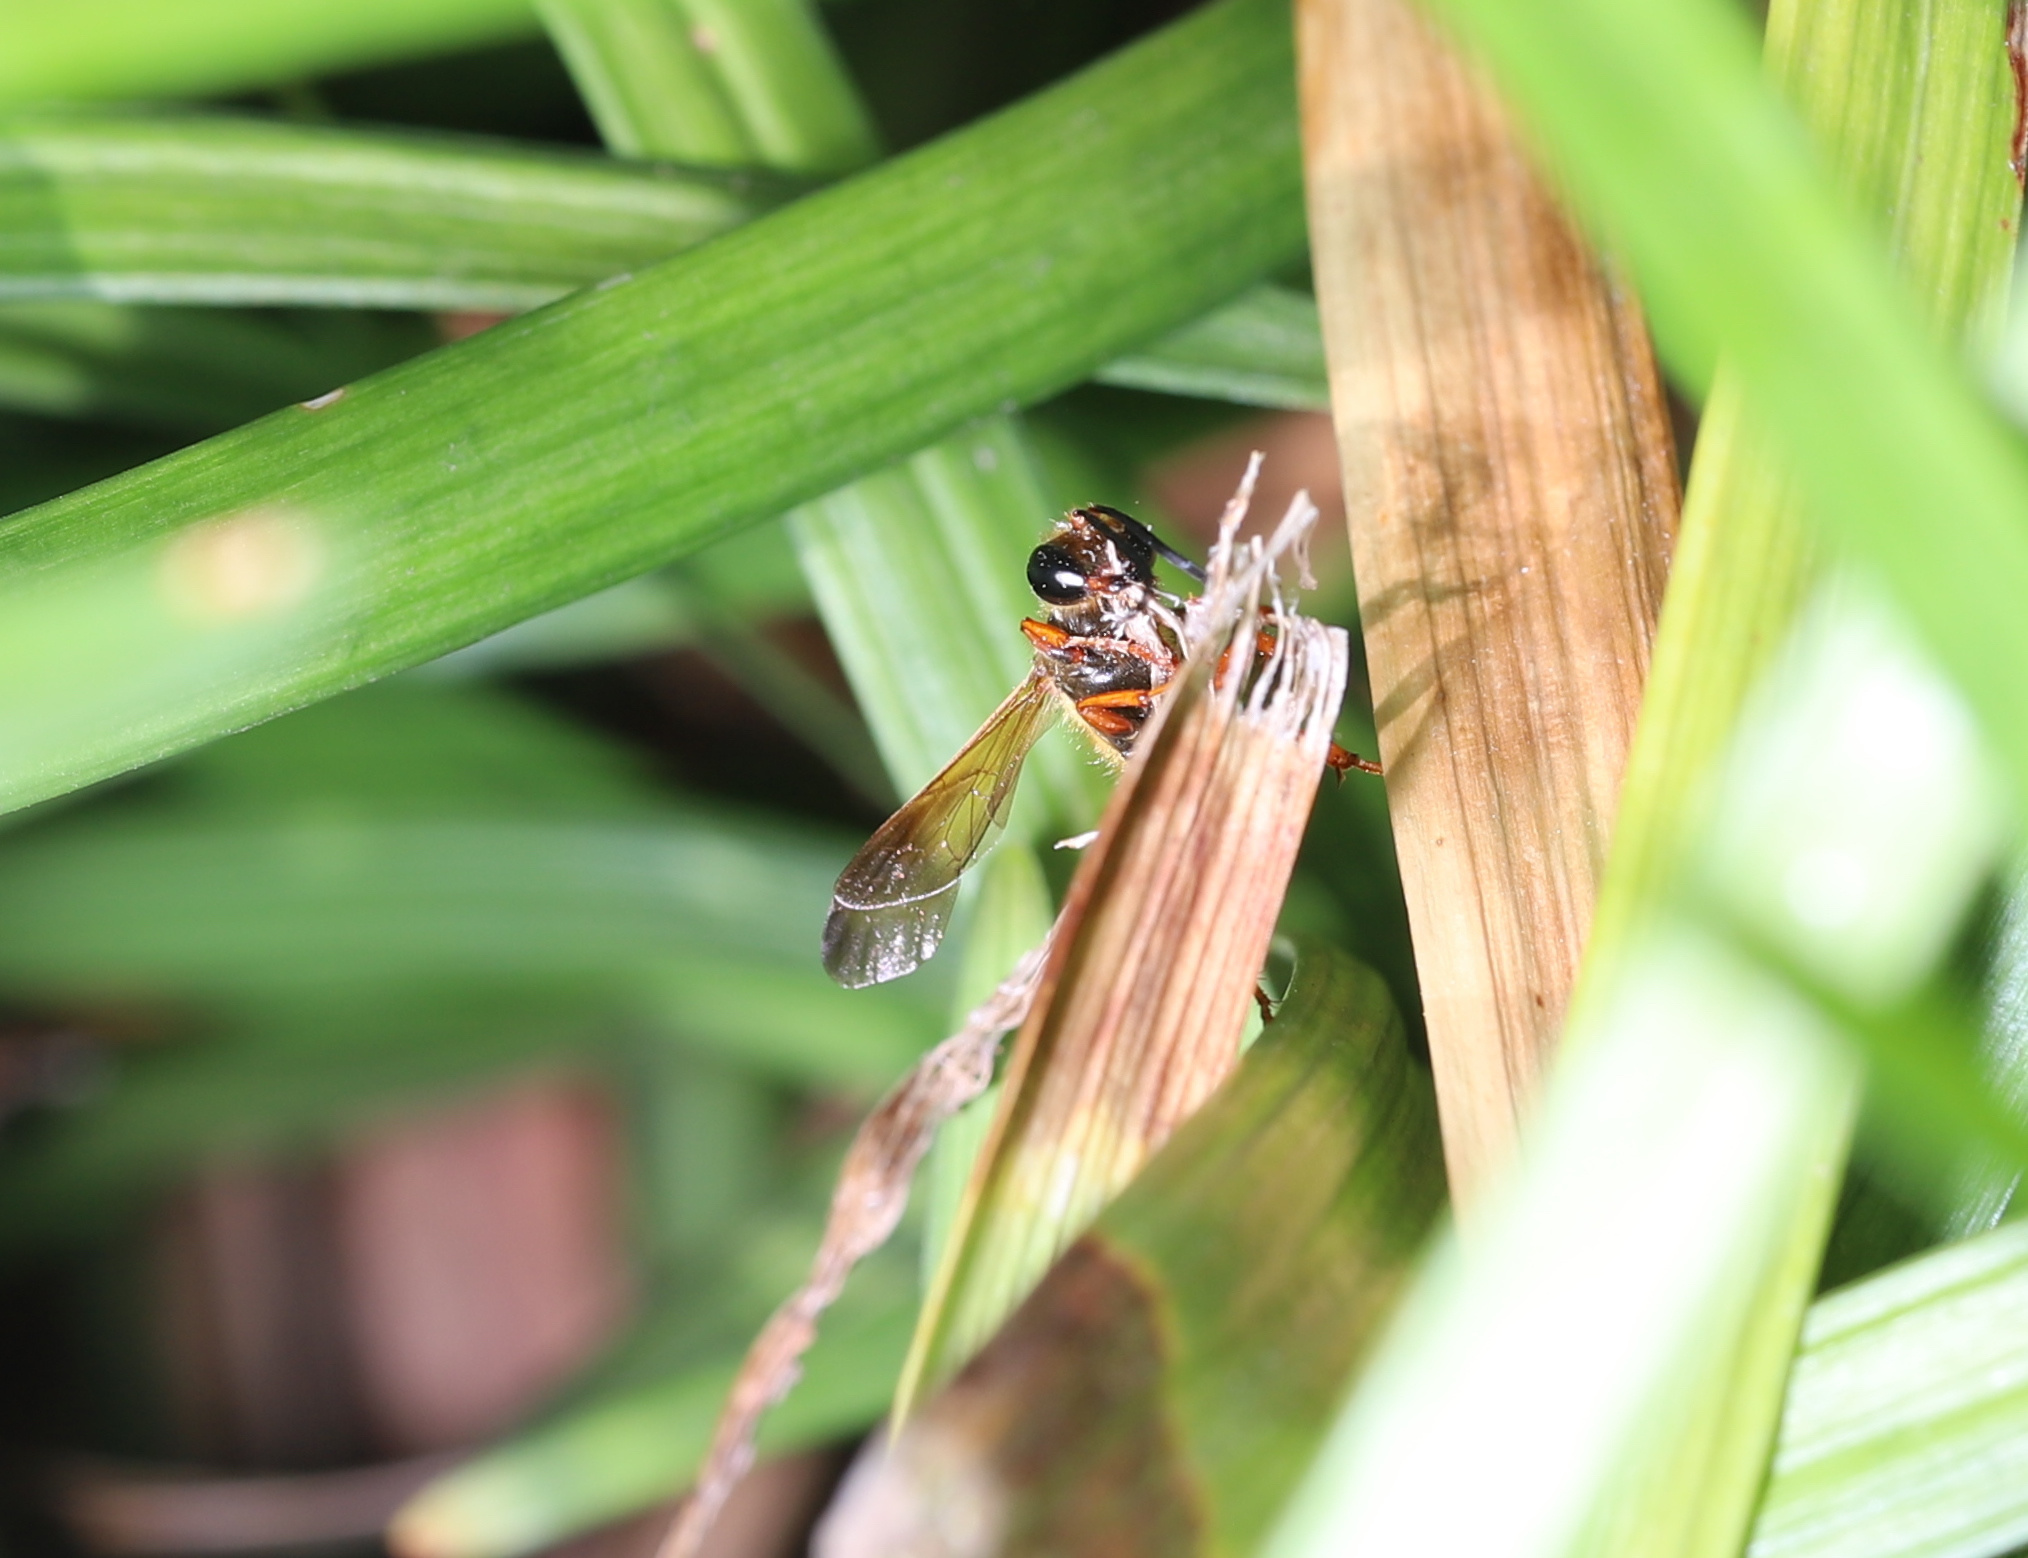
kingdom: Animalia
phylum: Arthropoda
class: Insecta
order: Hymenoptera
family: Sphecidae
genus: Isodontia
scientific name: Isodontia elegans
